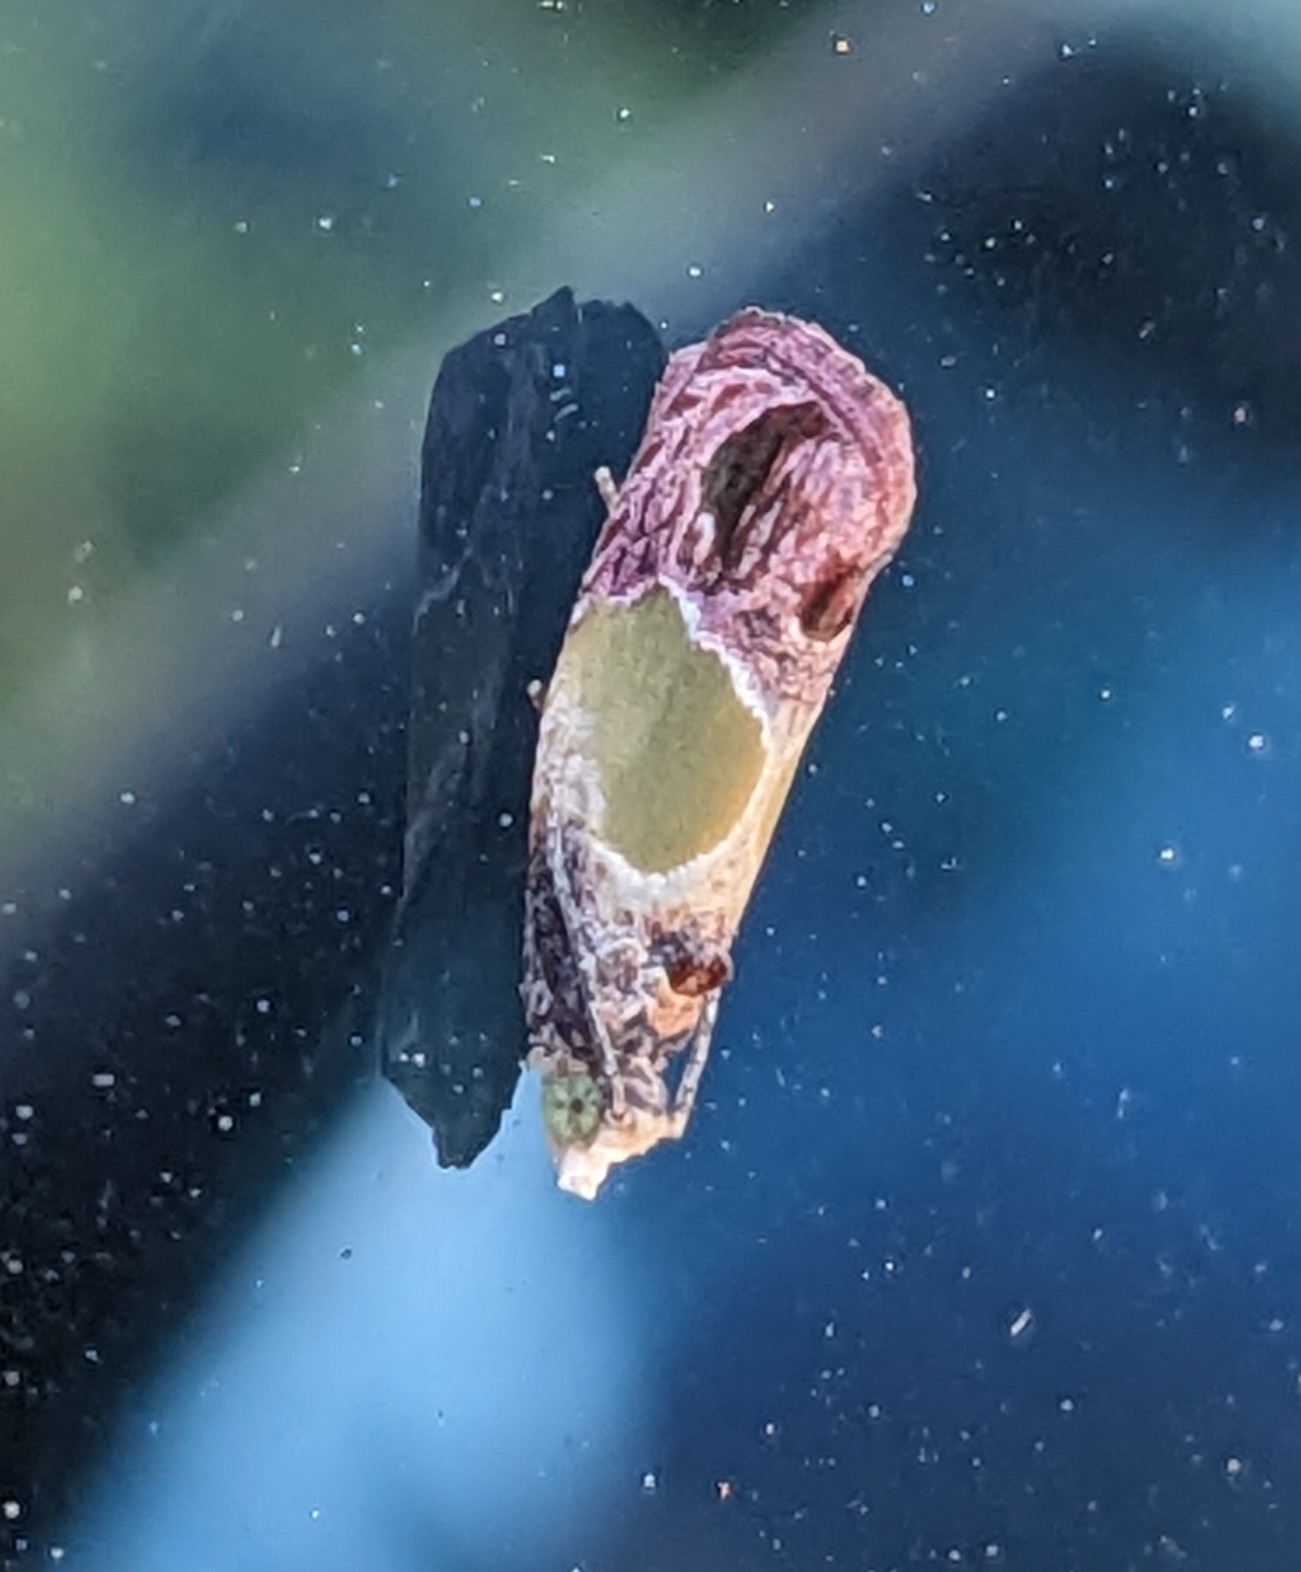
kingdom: Animalia
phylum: Arthropoda
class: Insecta
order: Lepidoptera
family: Tortricidae
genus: Eumarozia
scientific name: Eumarozia malachitana
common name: Sculptured moth
